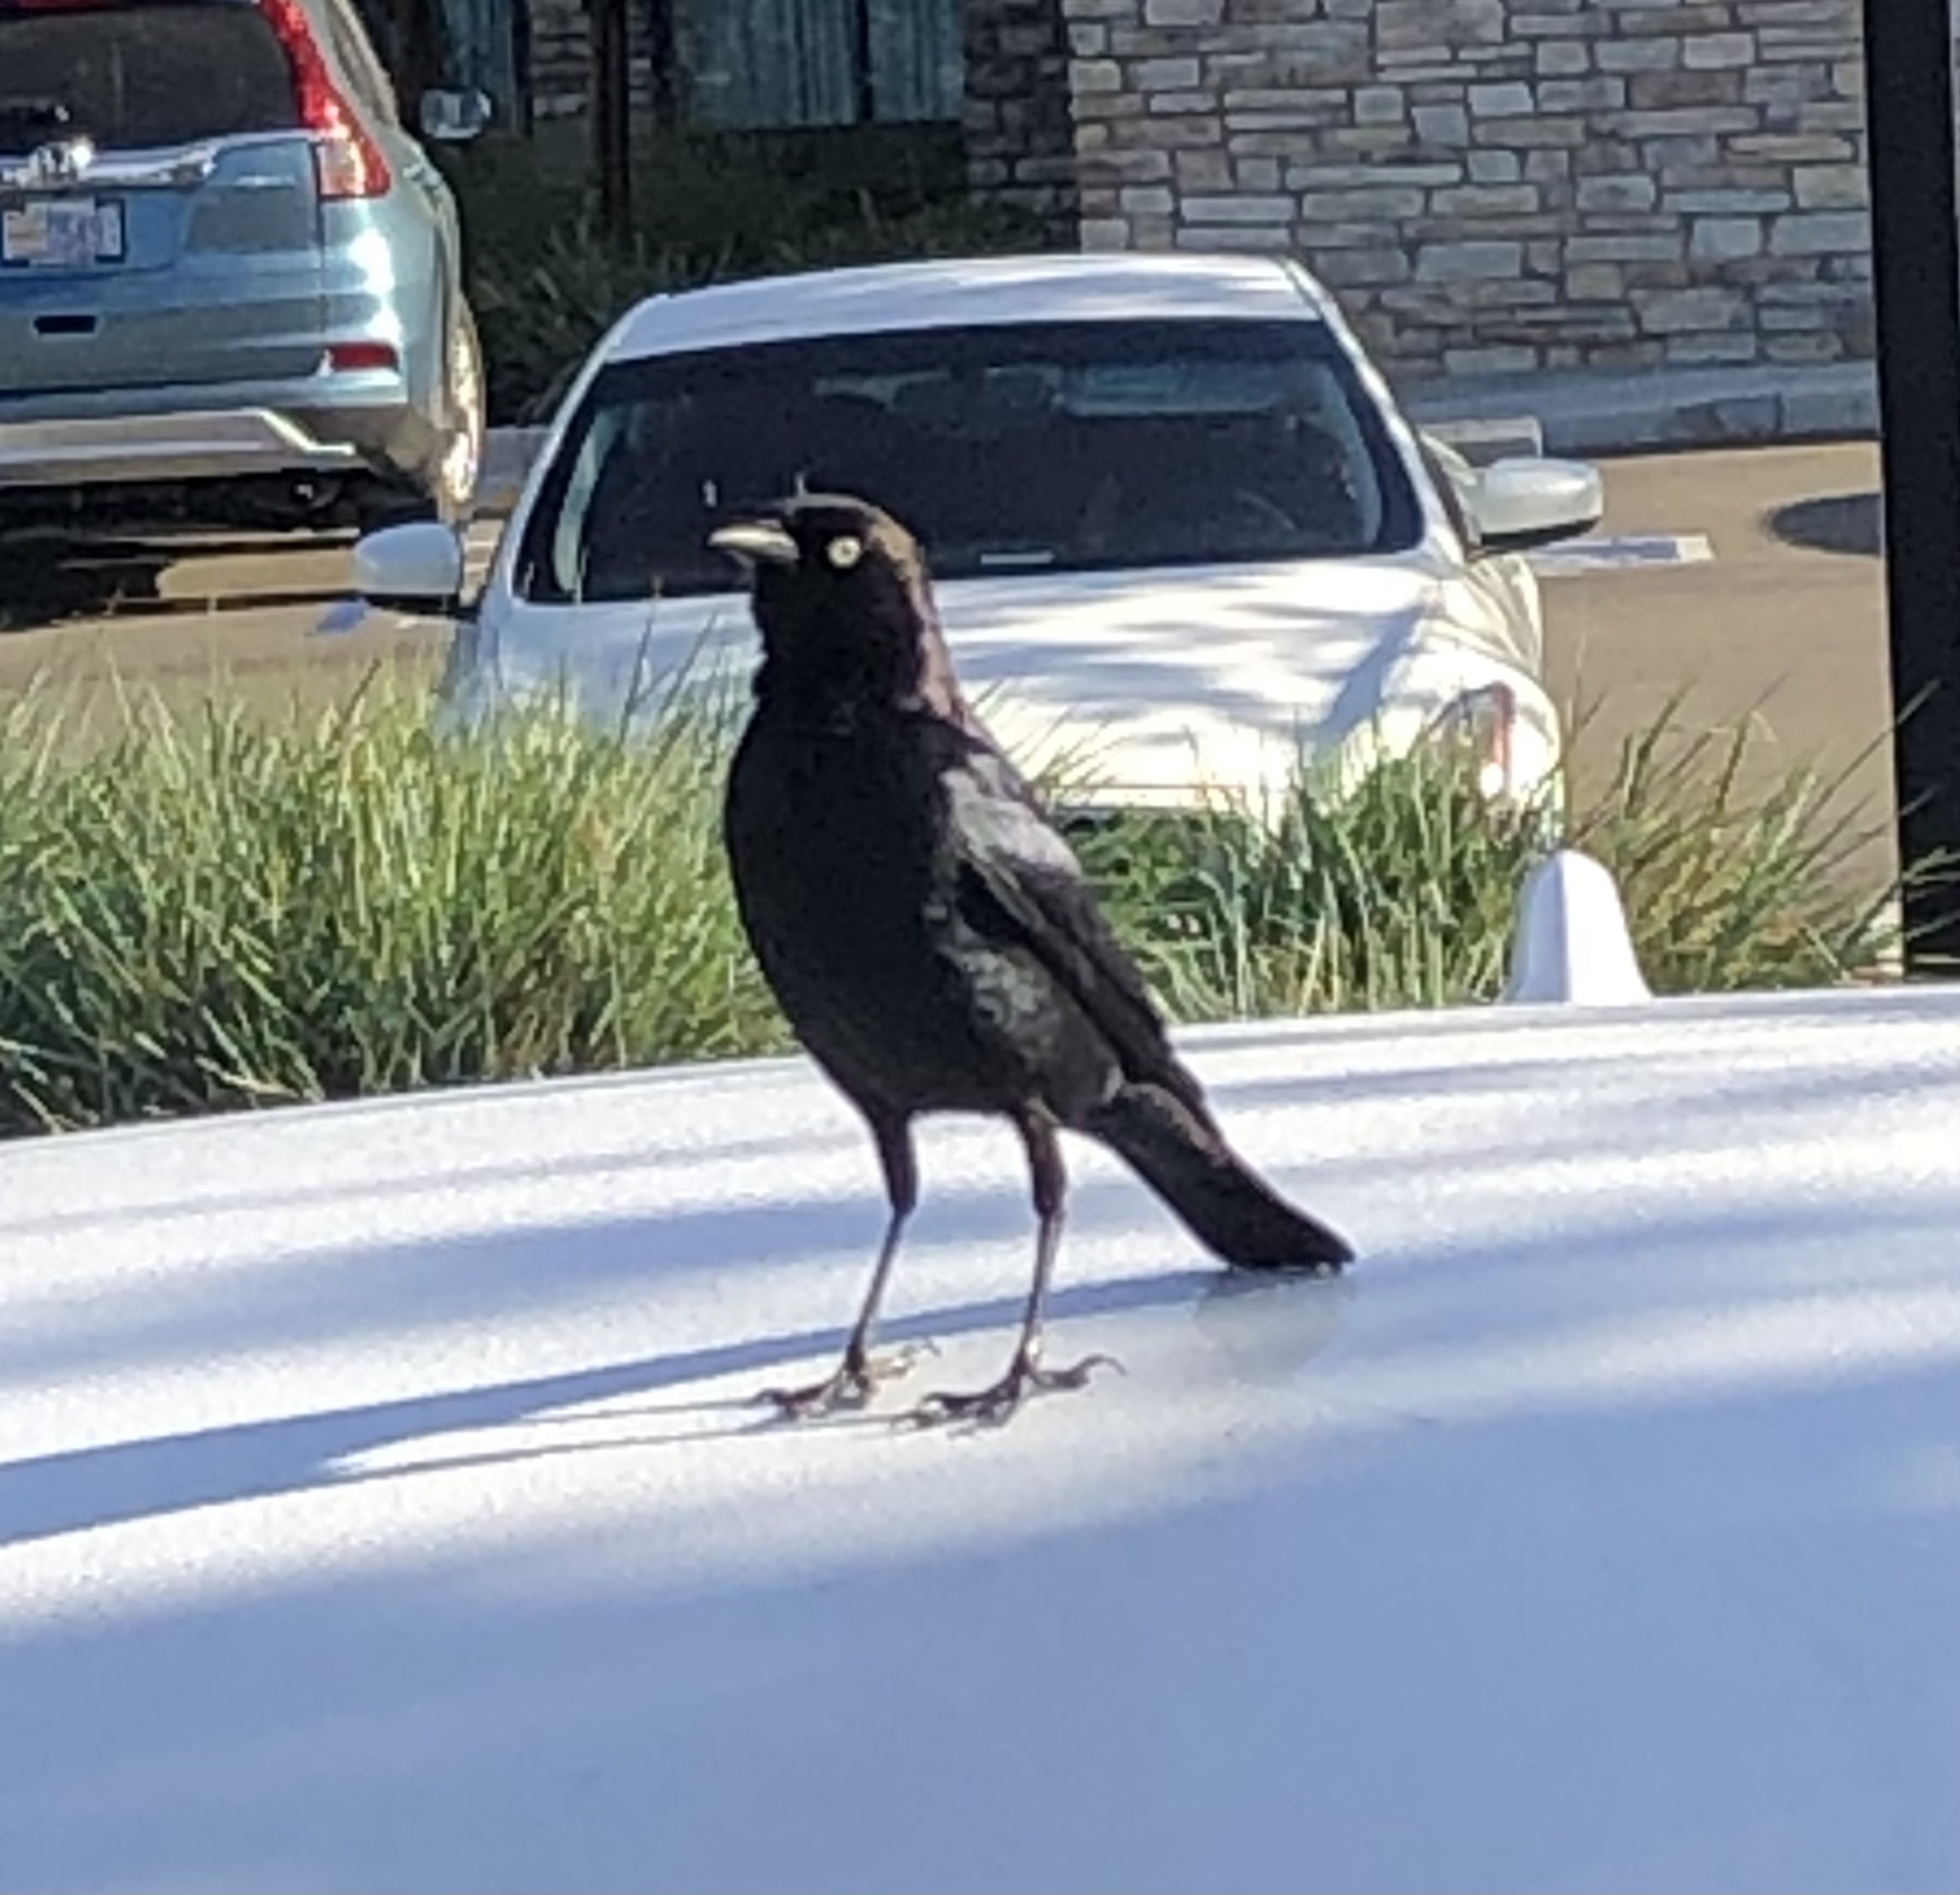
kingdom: Animalia
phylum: Chordata
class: Aves
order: Passeriformes
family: Icteridae
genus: Euphagus
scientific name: Euphagus cyanocephalus
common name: Brewer's blackbird
